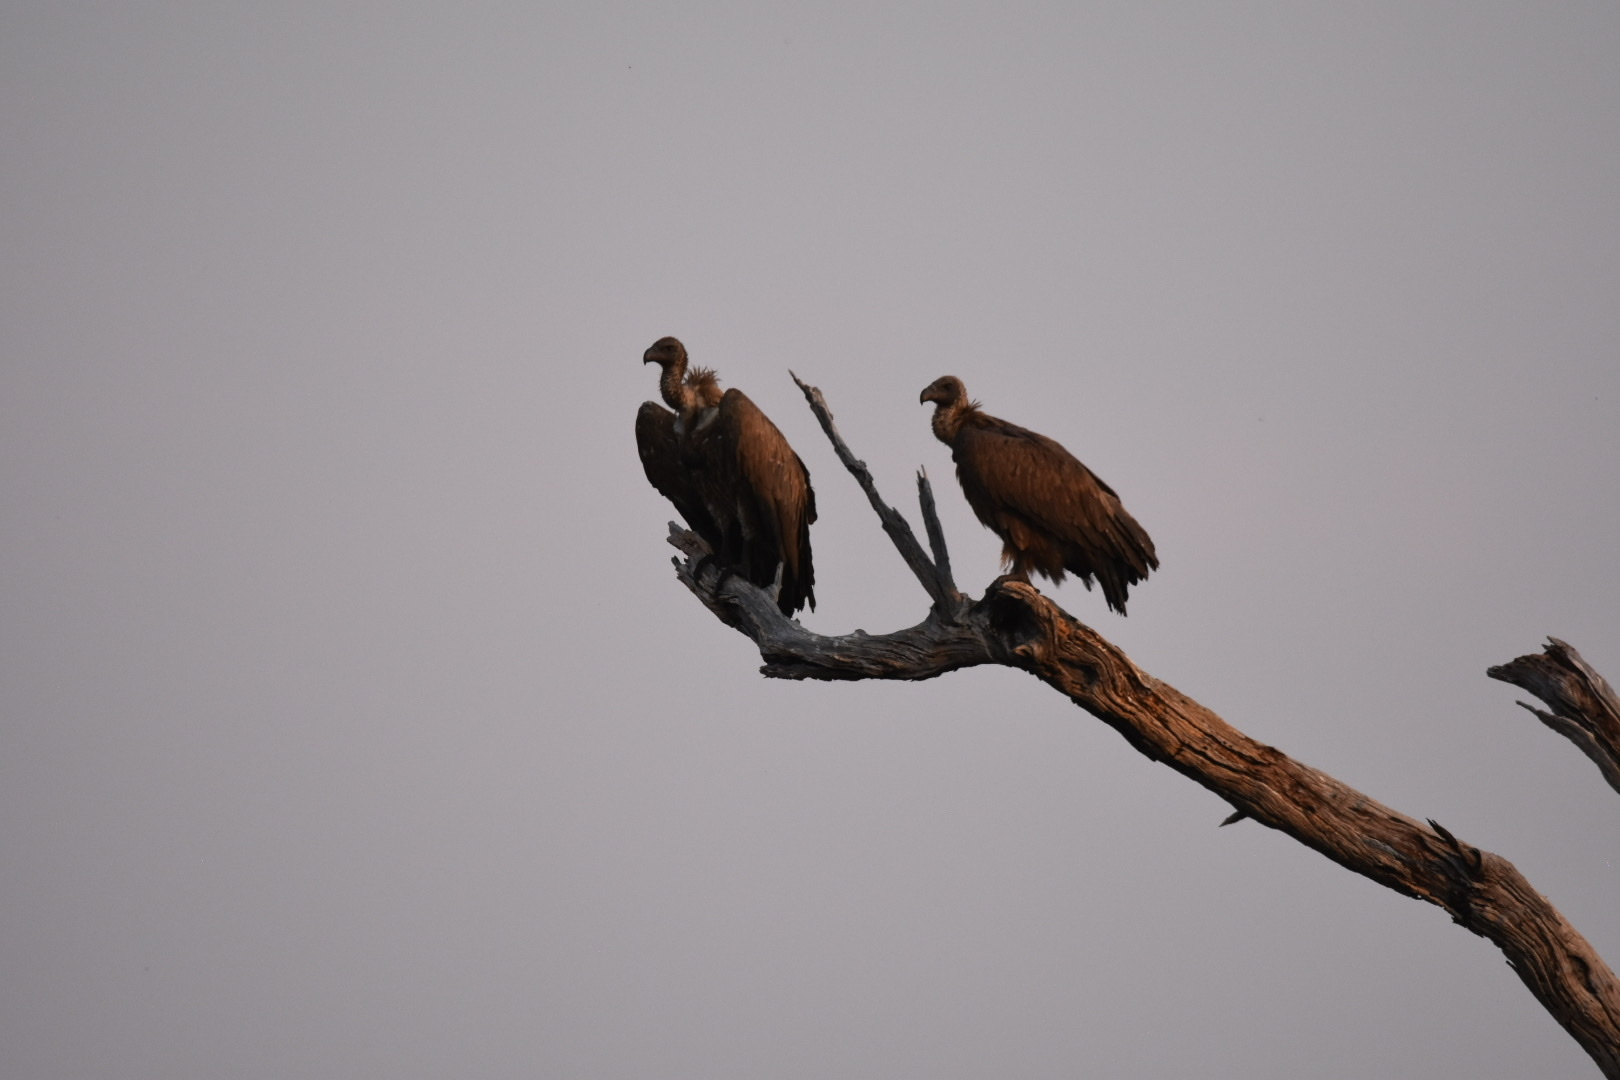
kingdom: Animalia
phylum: Chordata
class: Aves
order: Accipitriformes
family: Accipitridae
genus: Gyps
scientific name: Gyps africanus
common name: White-backed vulture
